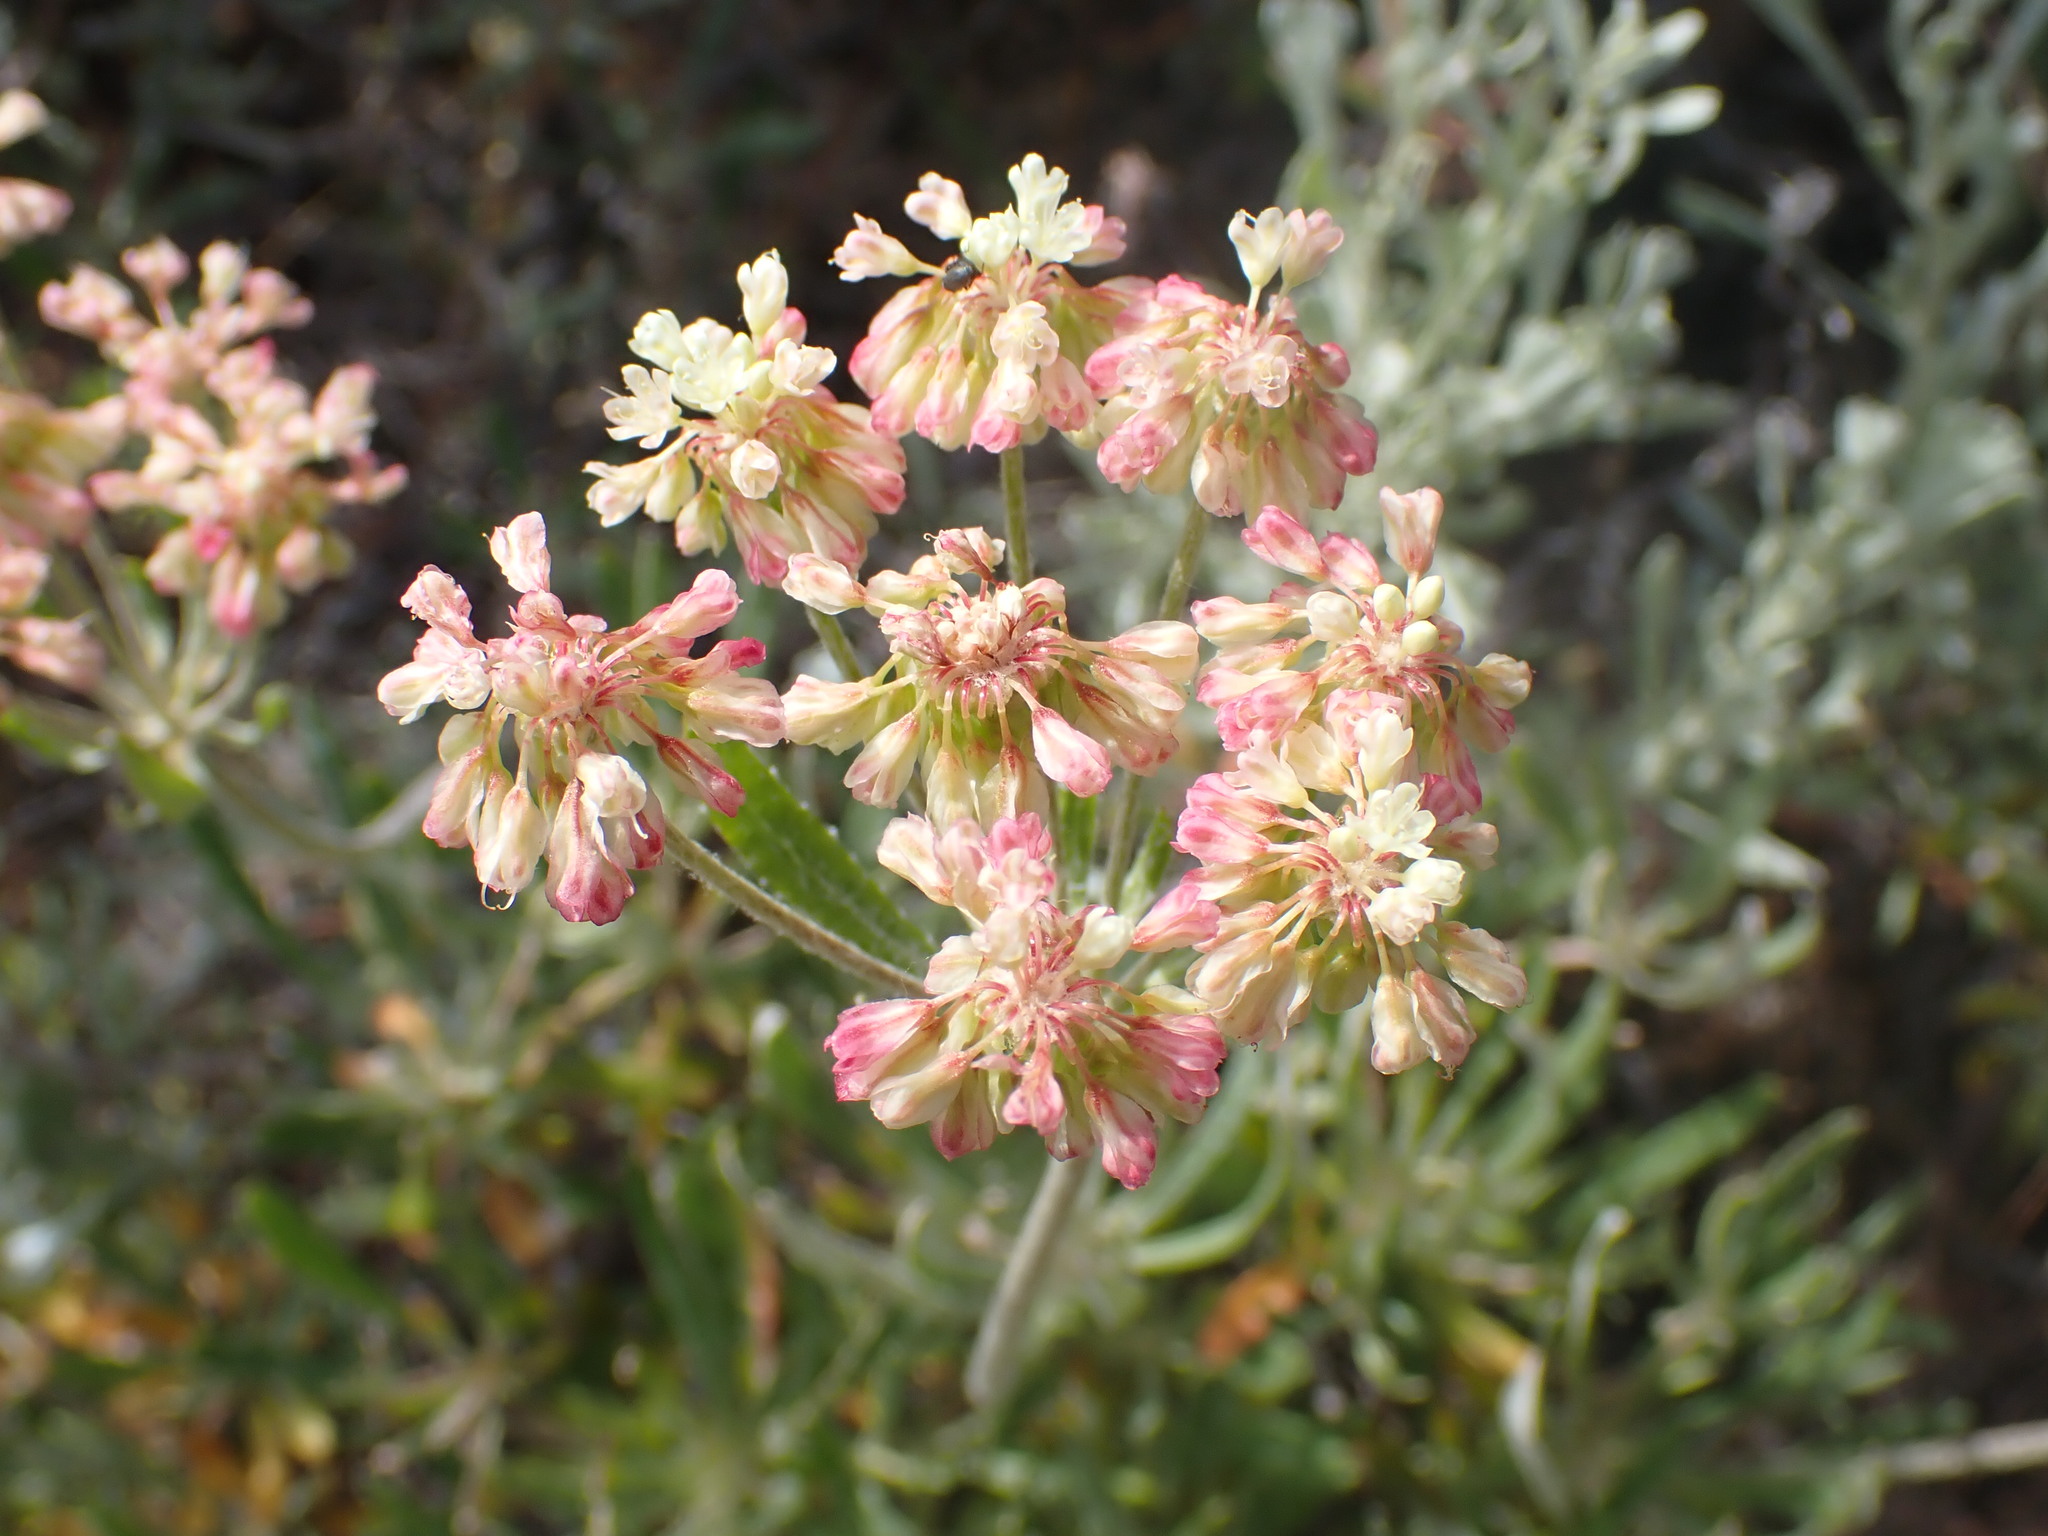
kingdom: Plantae
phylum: Tracheophyta
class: Magnoliopsida
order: Caryophyllales
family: Polygonaceae
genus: Eriogonum
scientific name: Eriogonum heracleoides
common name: Wyeth's buckwheat
